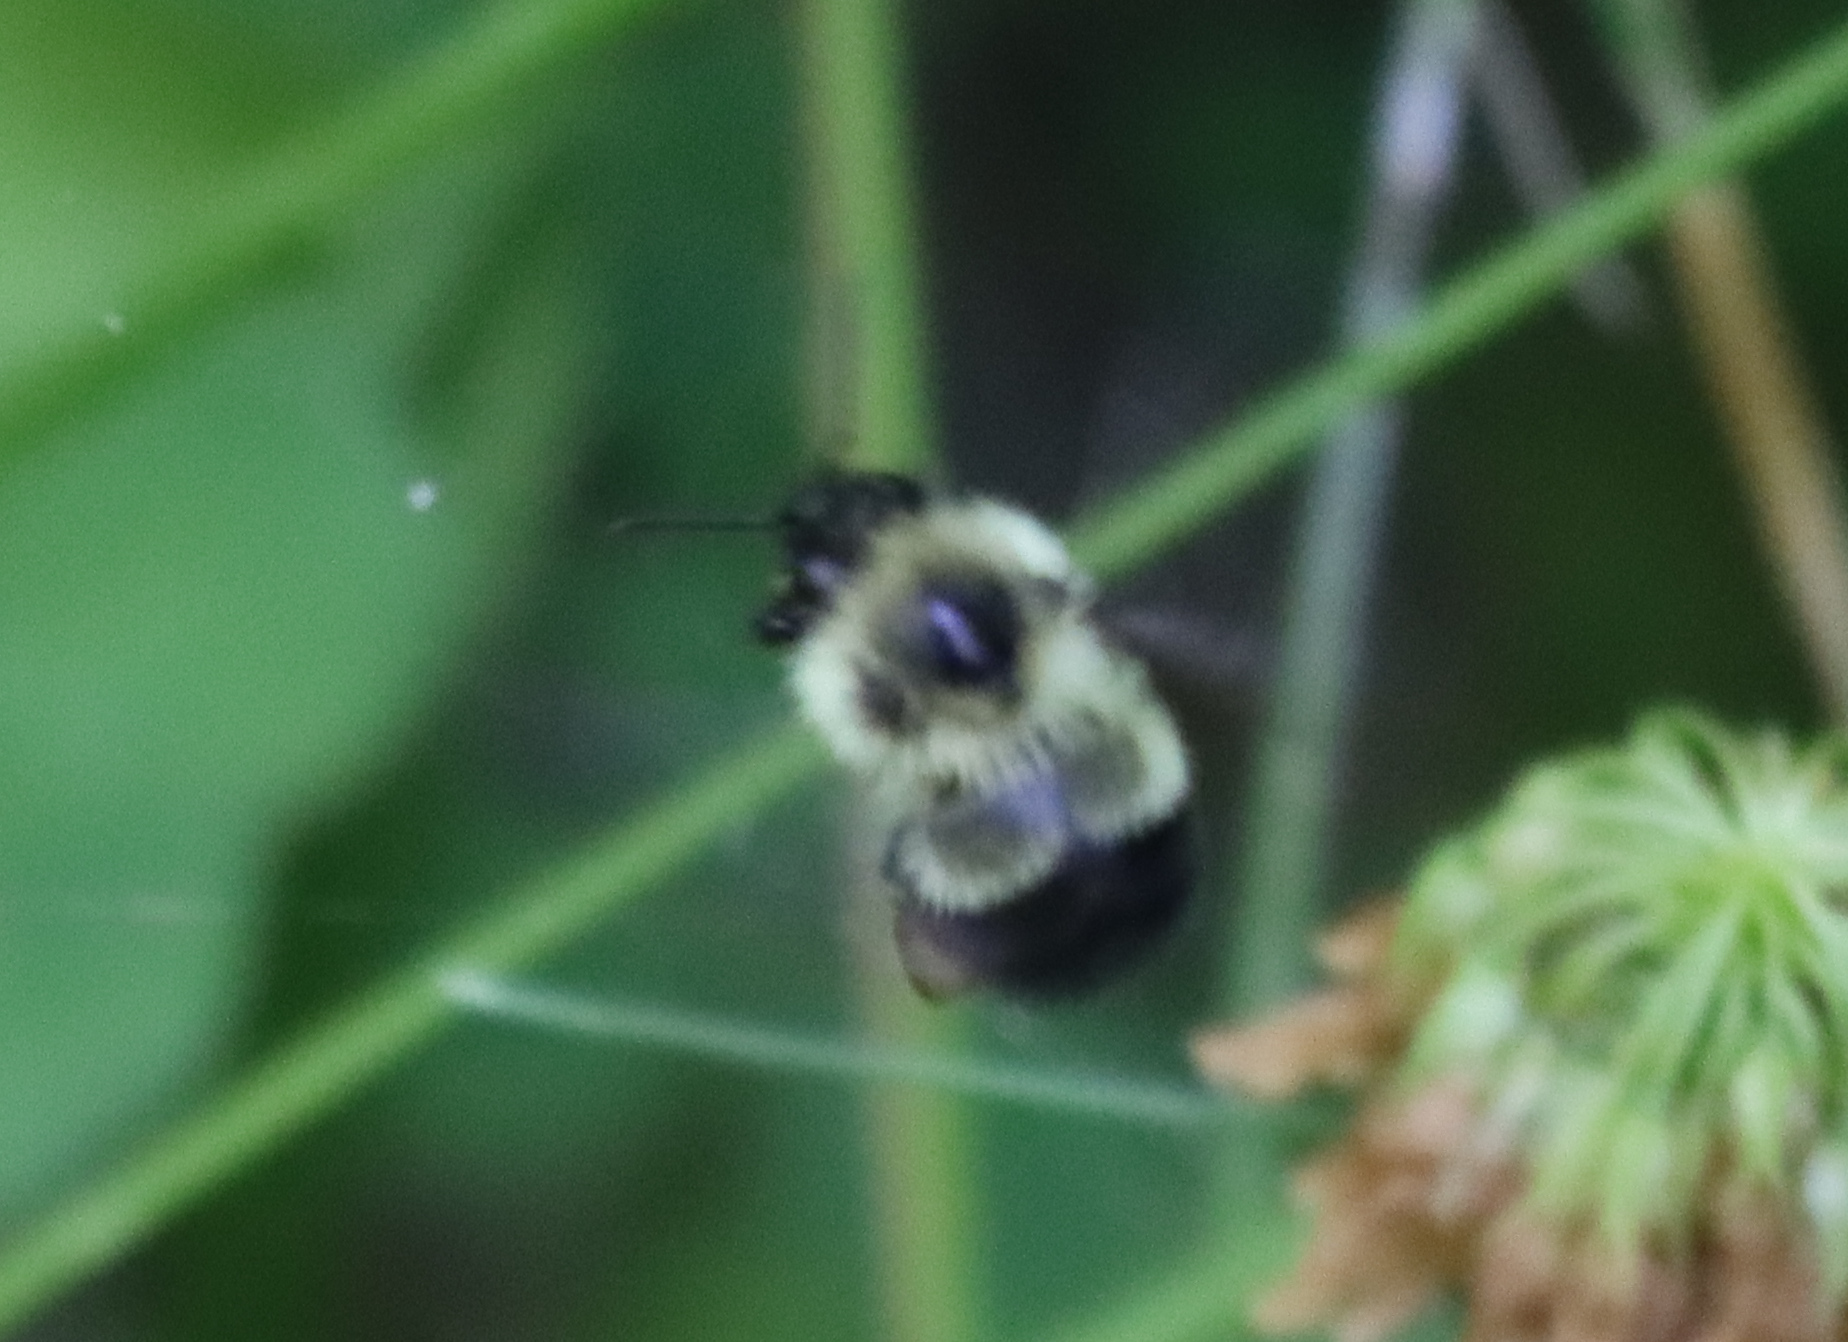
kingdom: Animalia
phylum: Arthropoda
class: Insecta
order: Hymenoptera
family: Apidae
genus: Pyrobombus
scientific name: Pyrobombus
